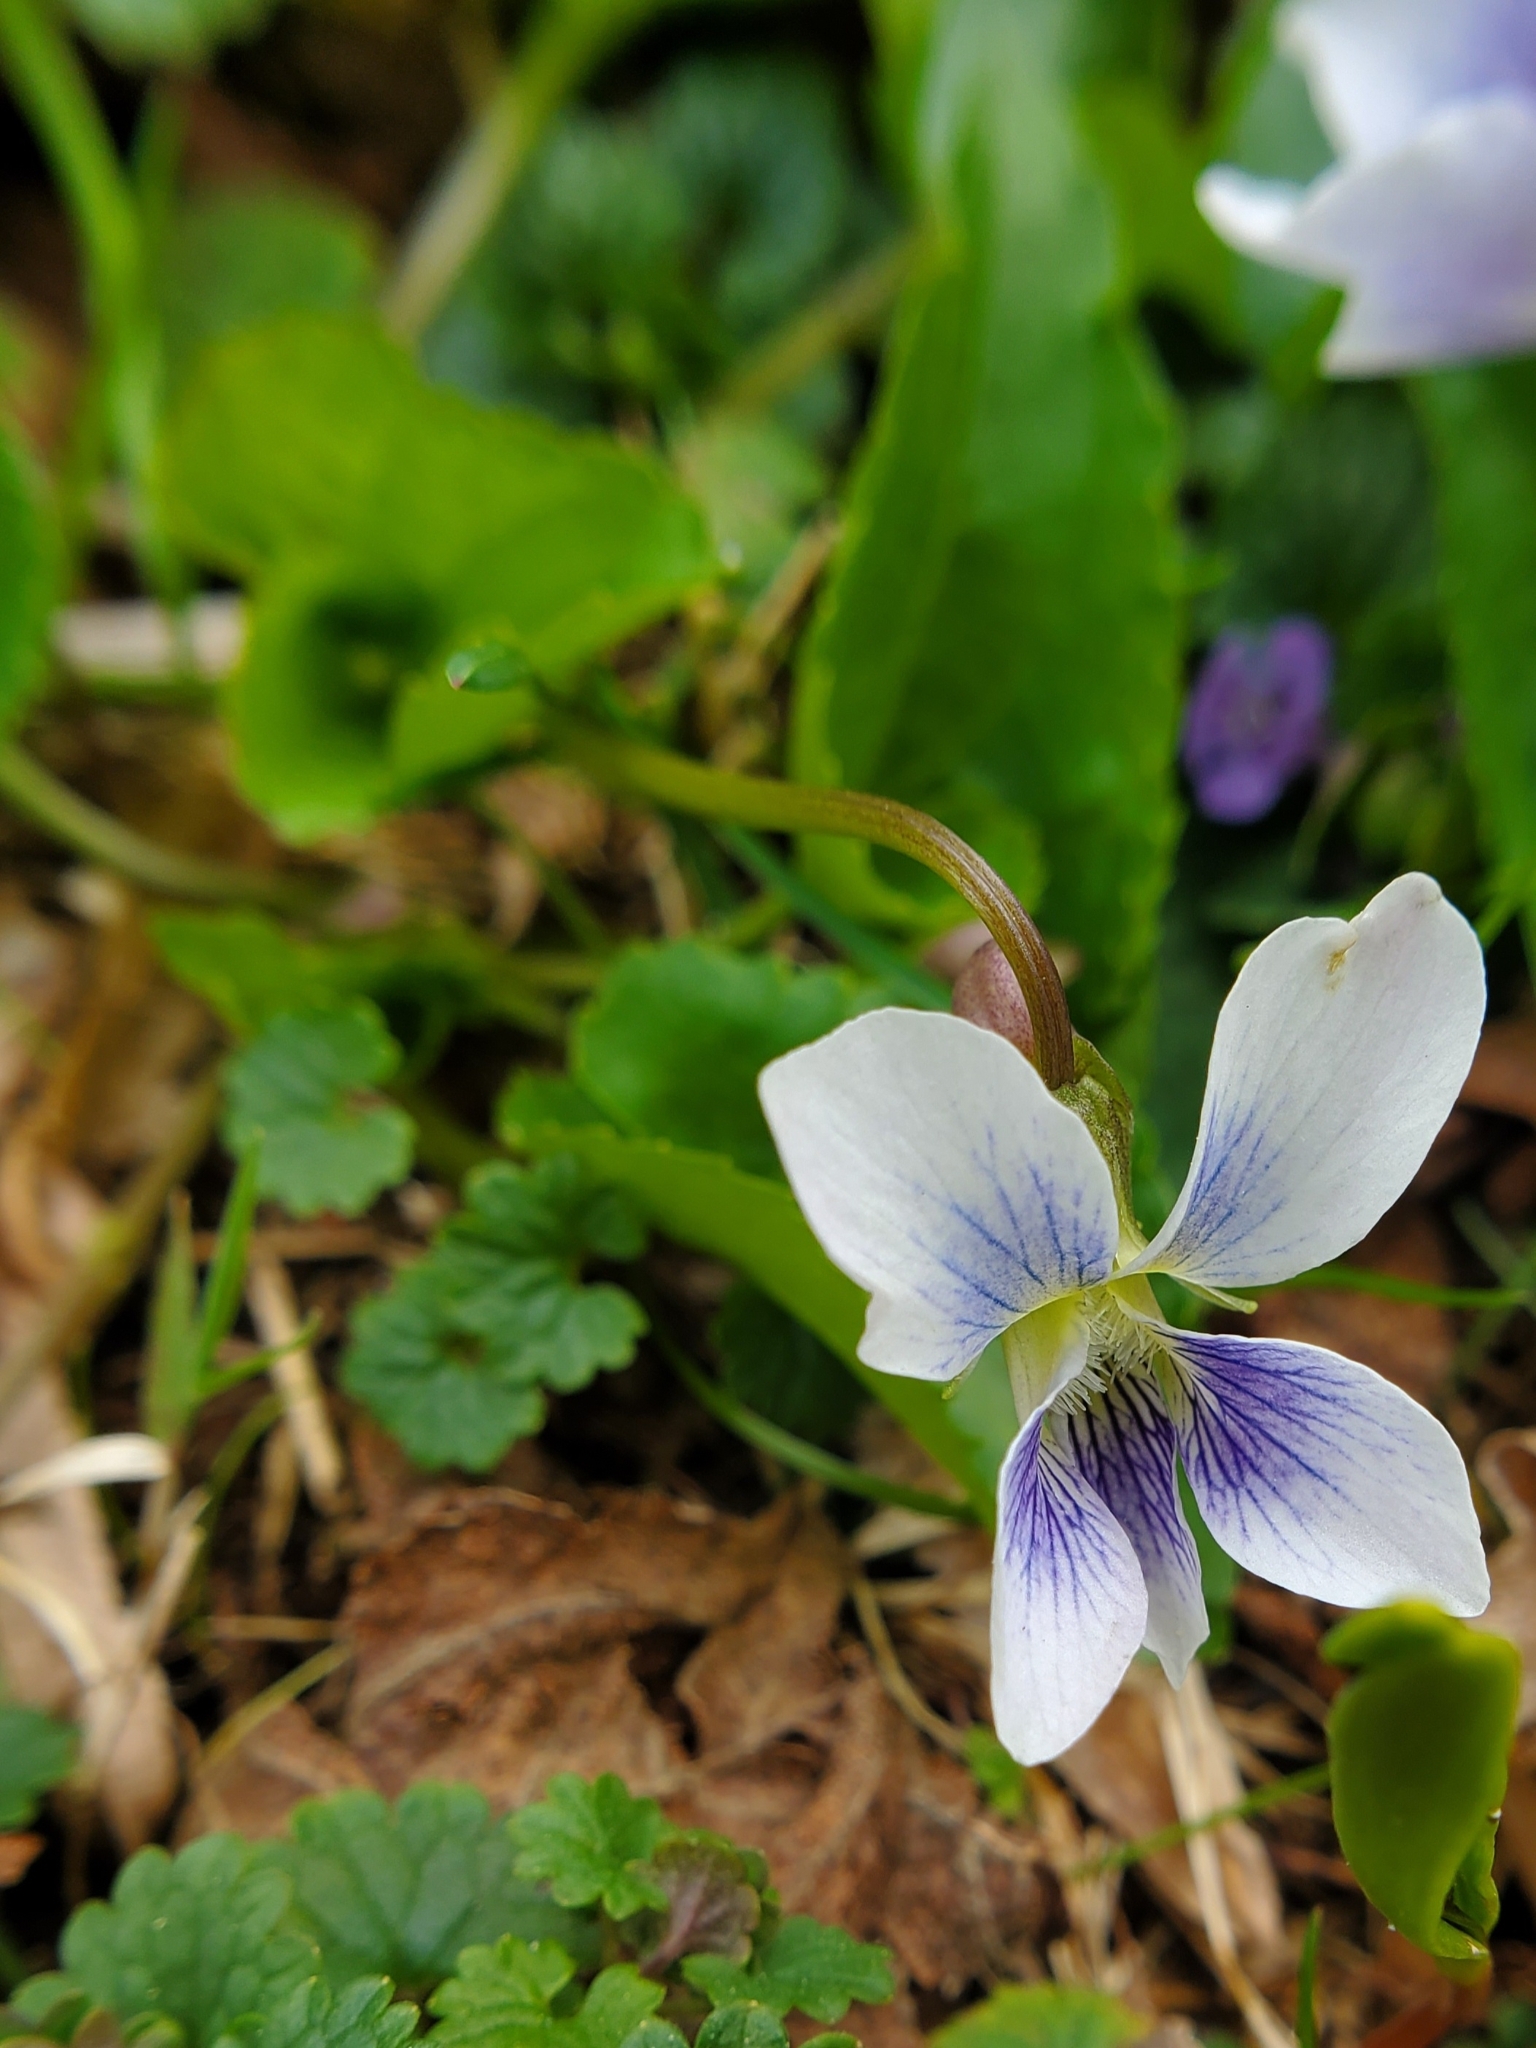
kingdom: Plantae
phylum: Tracheophyta
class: Magnoliopsida
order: Malpighiales
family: Violaceae
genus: Viola
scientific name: Viola sororia
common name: Dooryard violet
